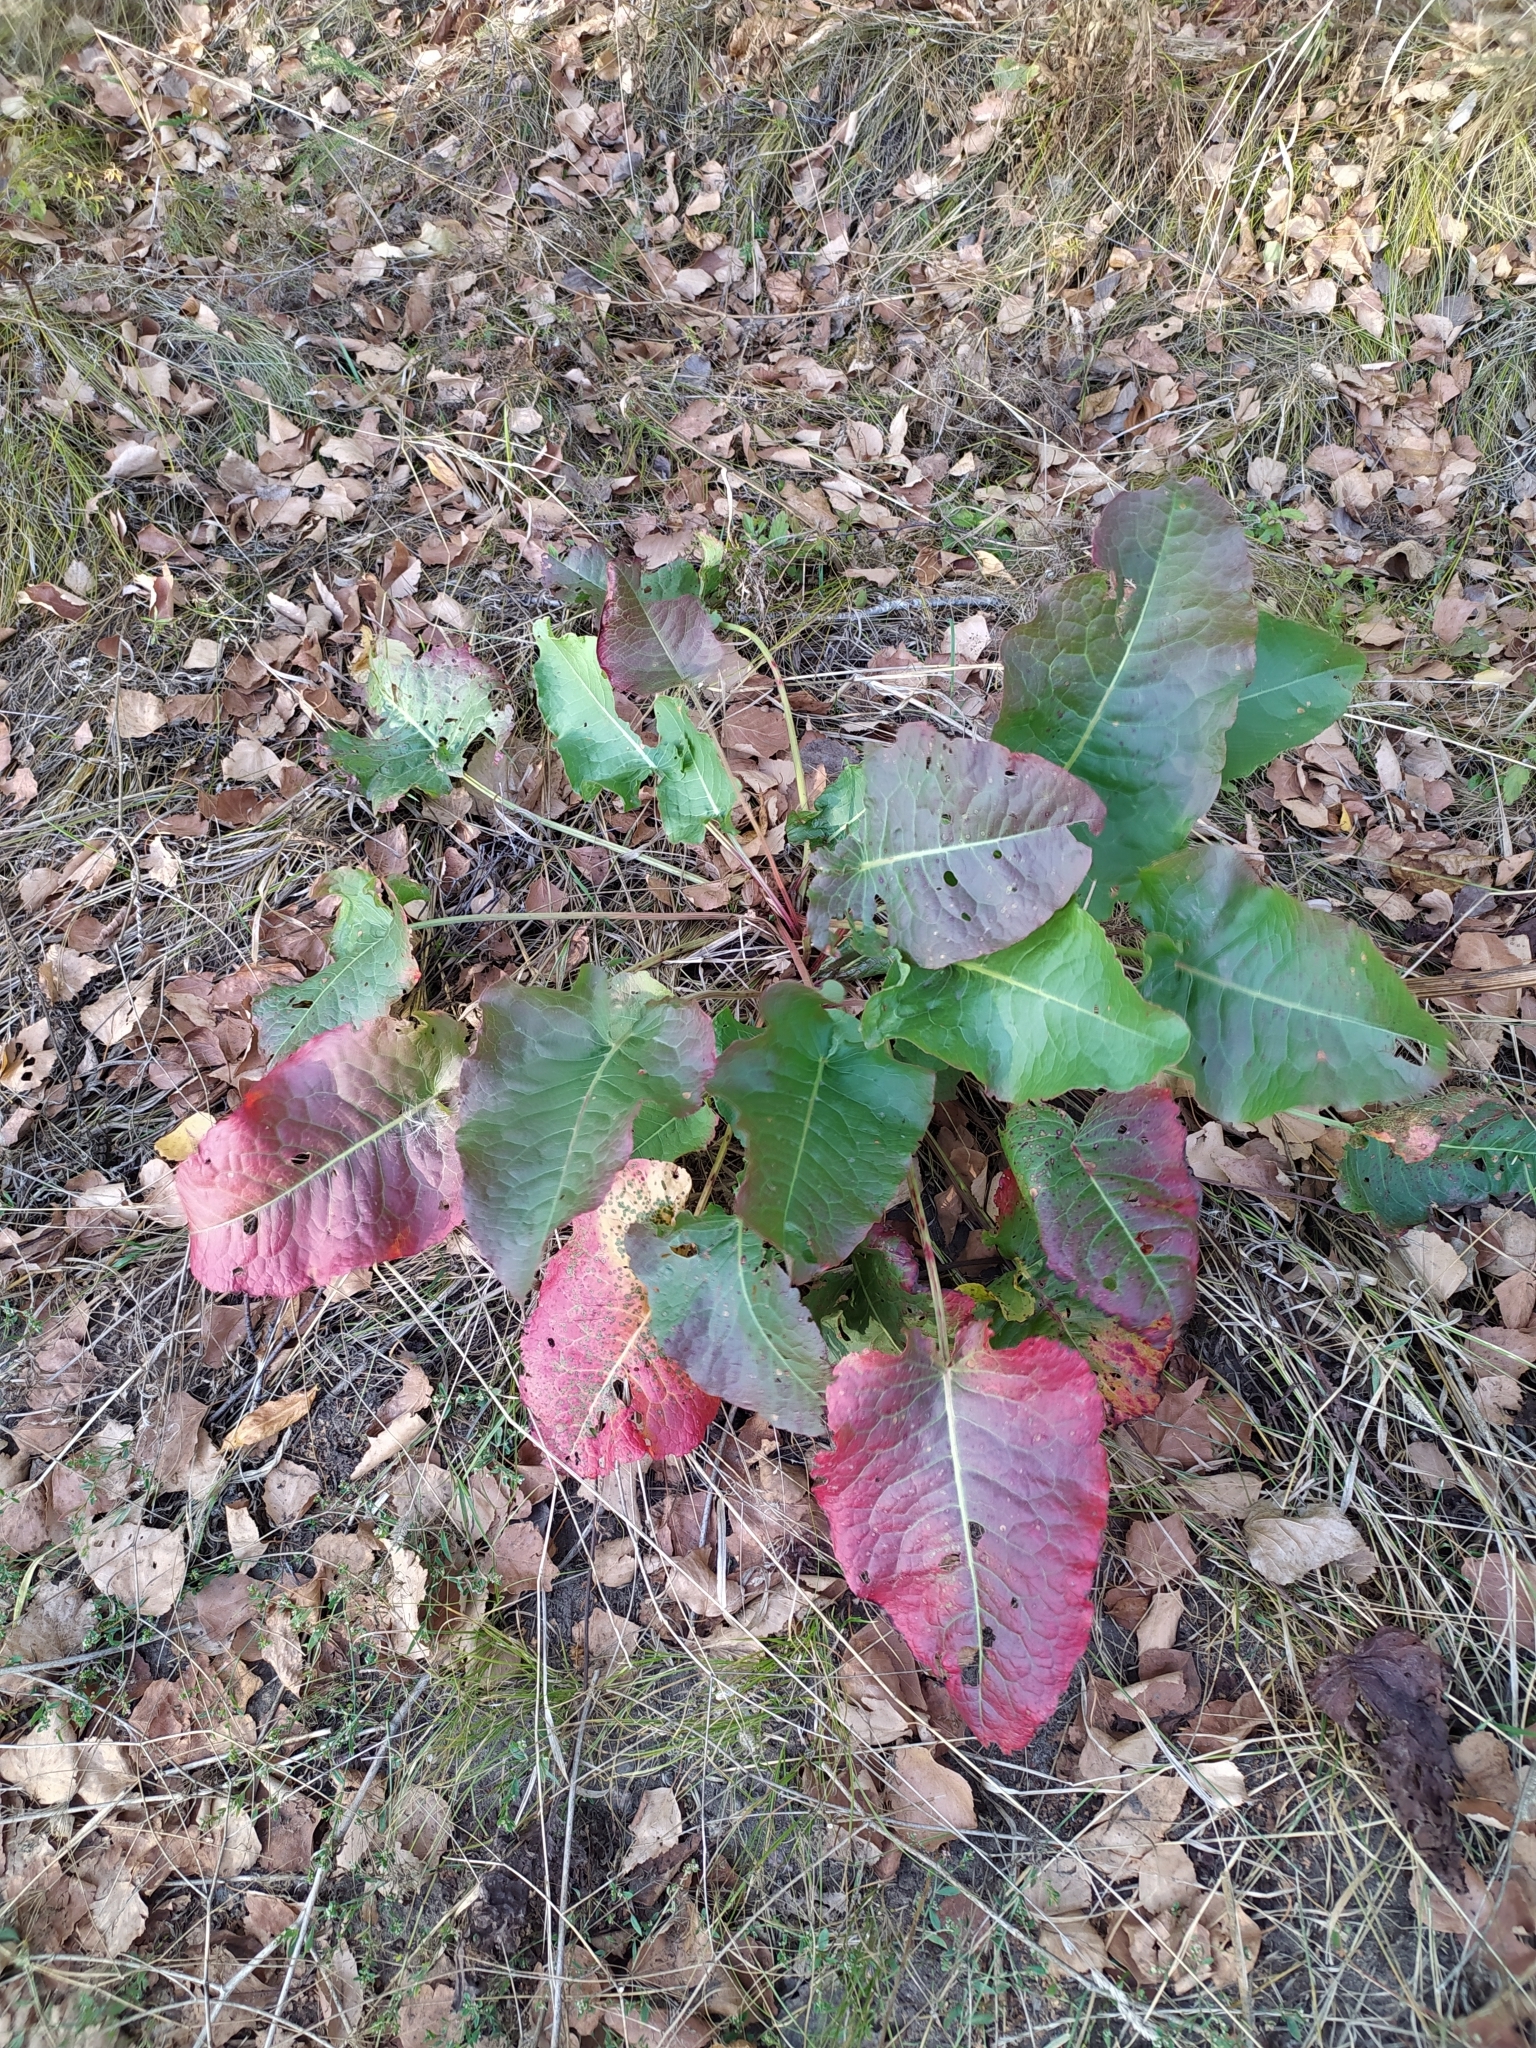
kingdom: Plantae
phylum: Tracheophyta
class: Magnoliopsida
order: Caryophyllales
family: Polygonaceae
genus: Rumex
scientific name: Rumex confertus
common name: Russian dock
